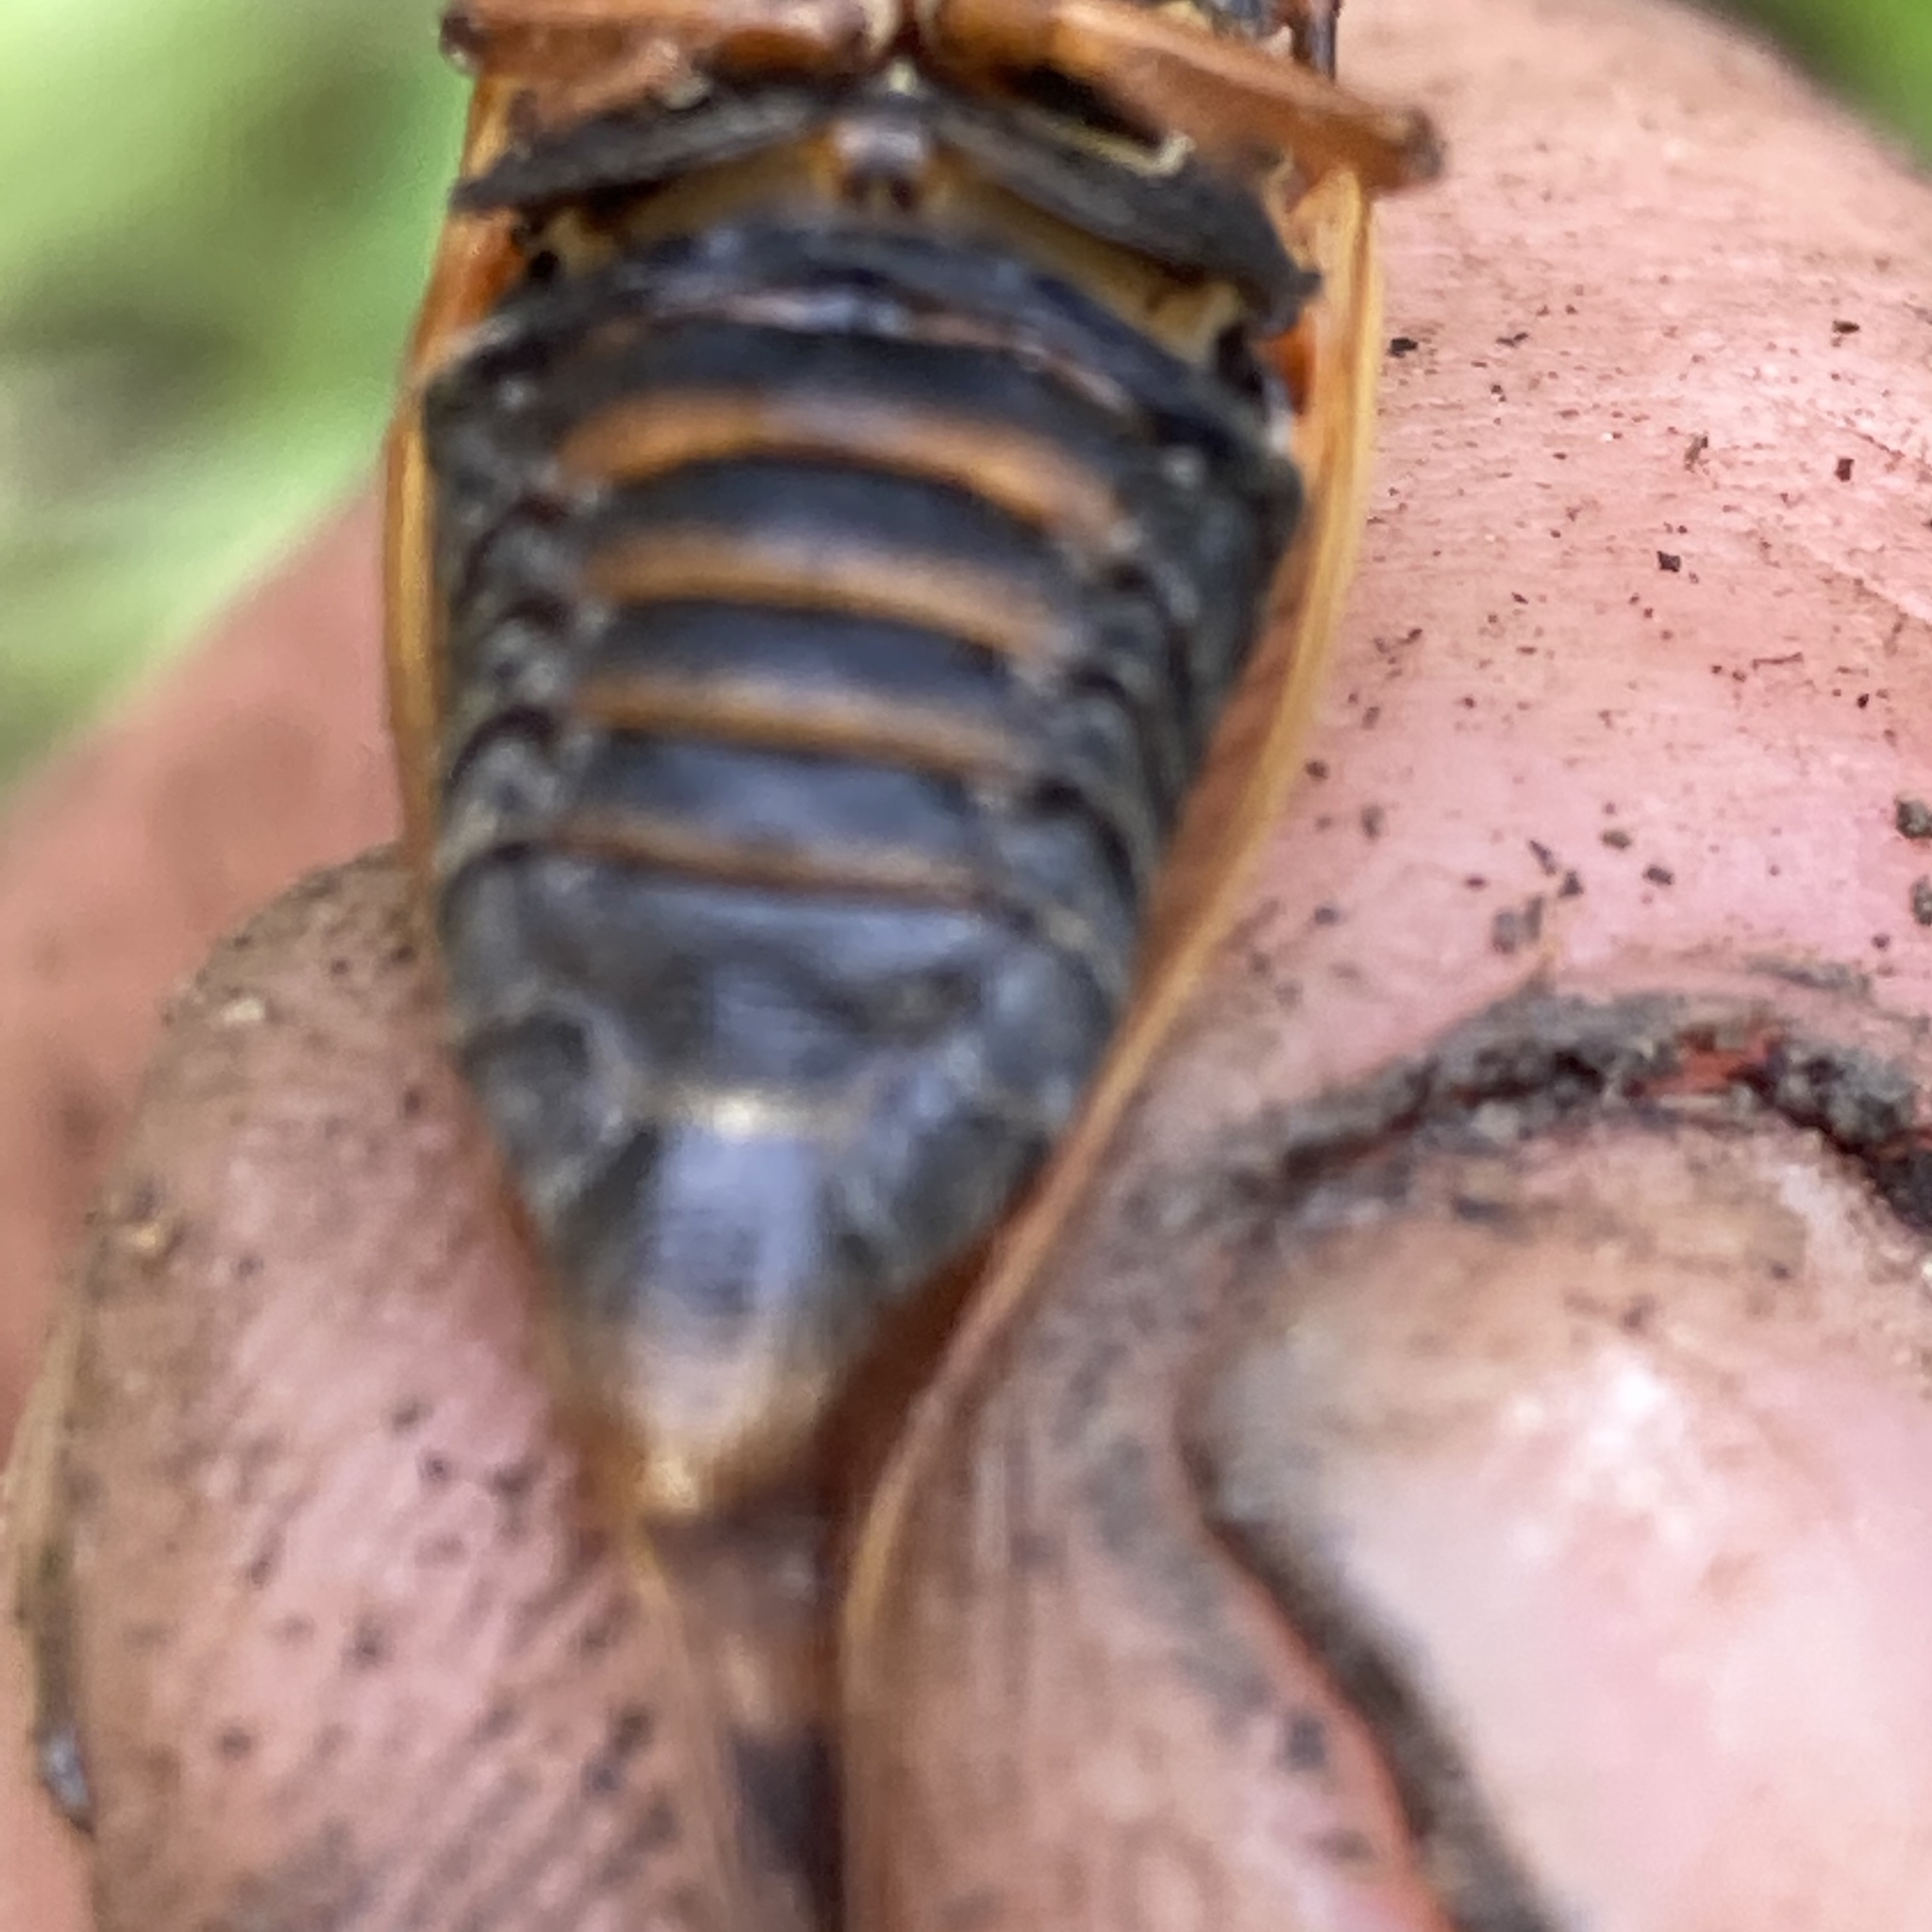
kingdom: Animalia
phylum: Arthropoda
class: Insecta
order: Hemiptera
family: Cicadidae
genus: Magicicada
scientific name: Magicicada septendecula
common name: Decula periodical cicada
